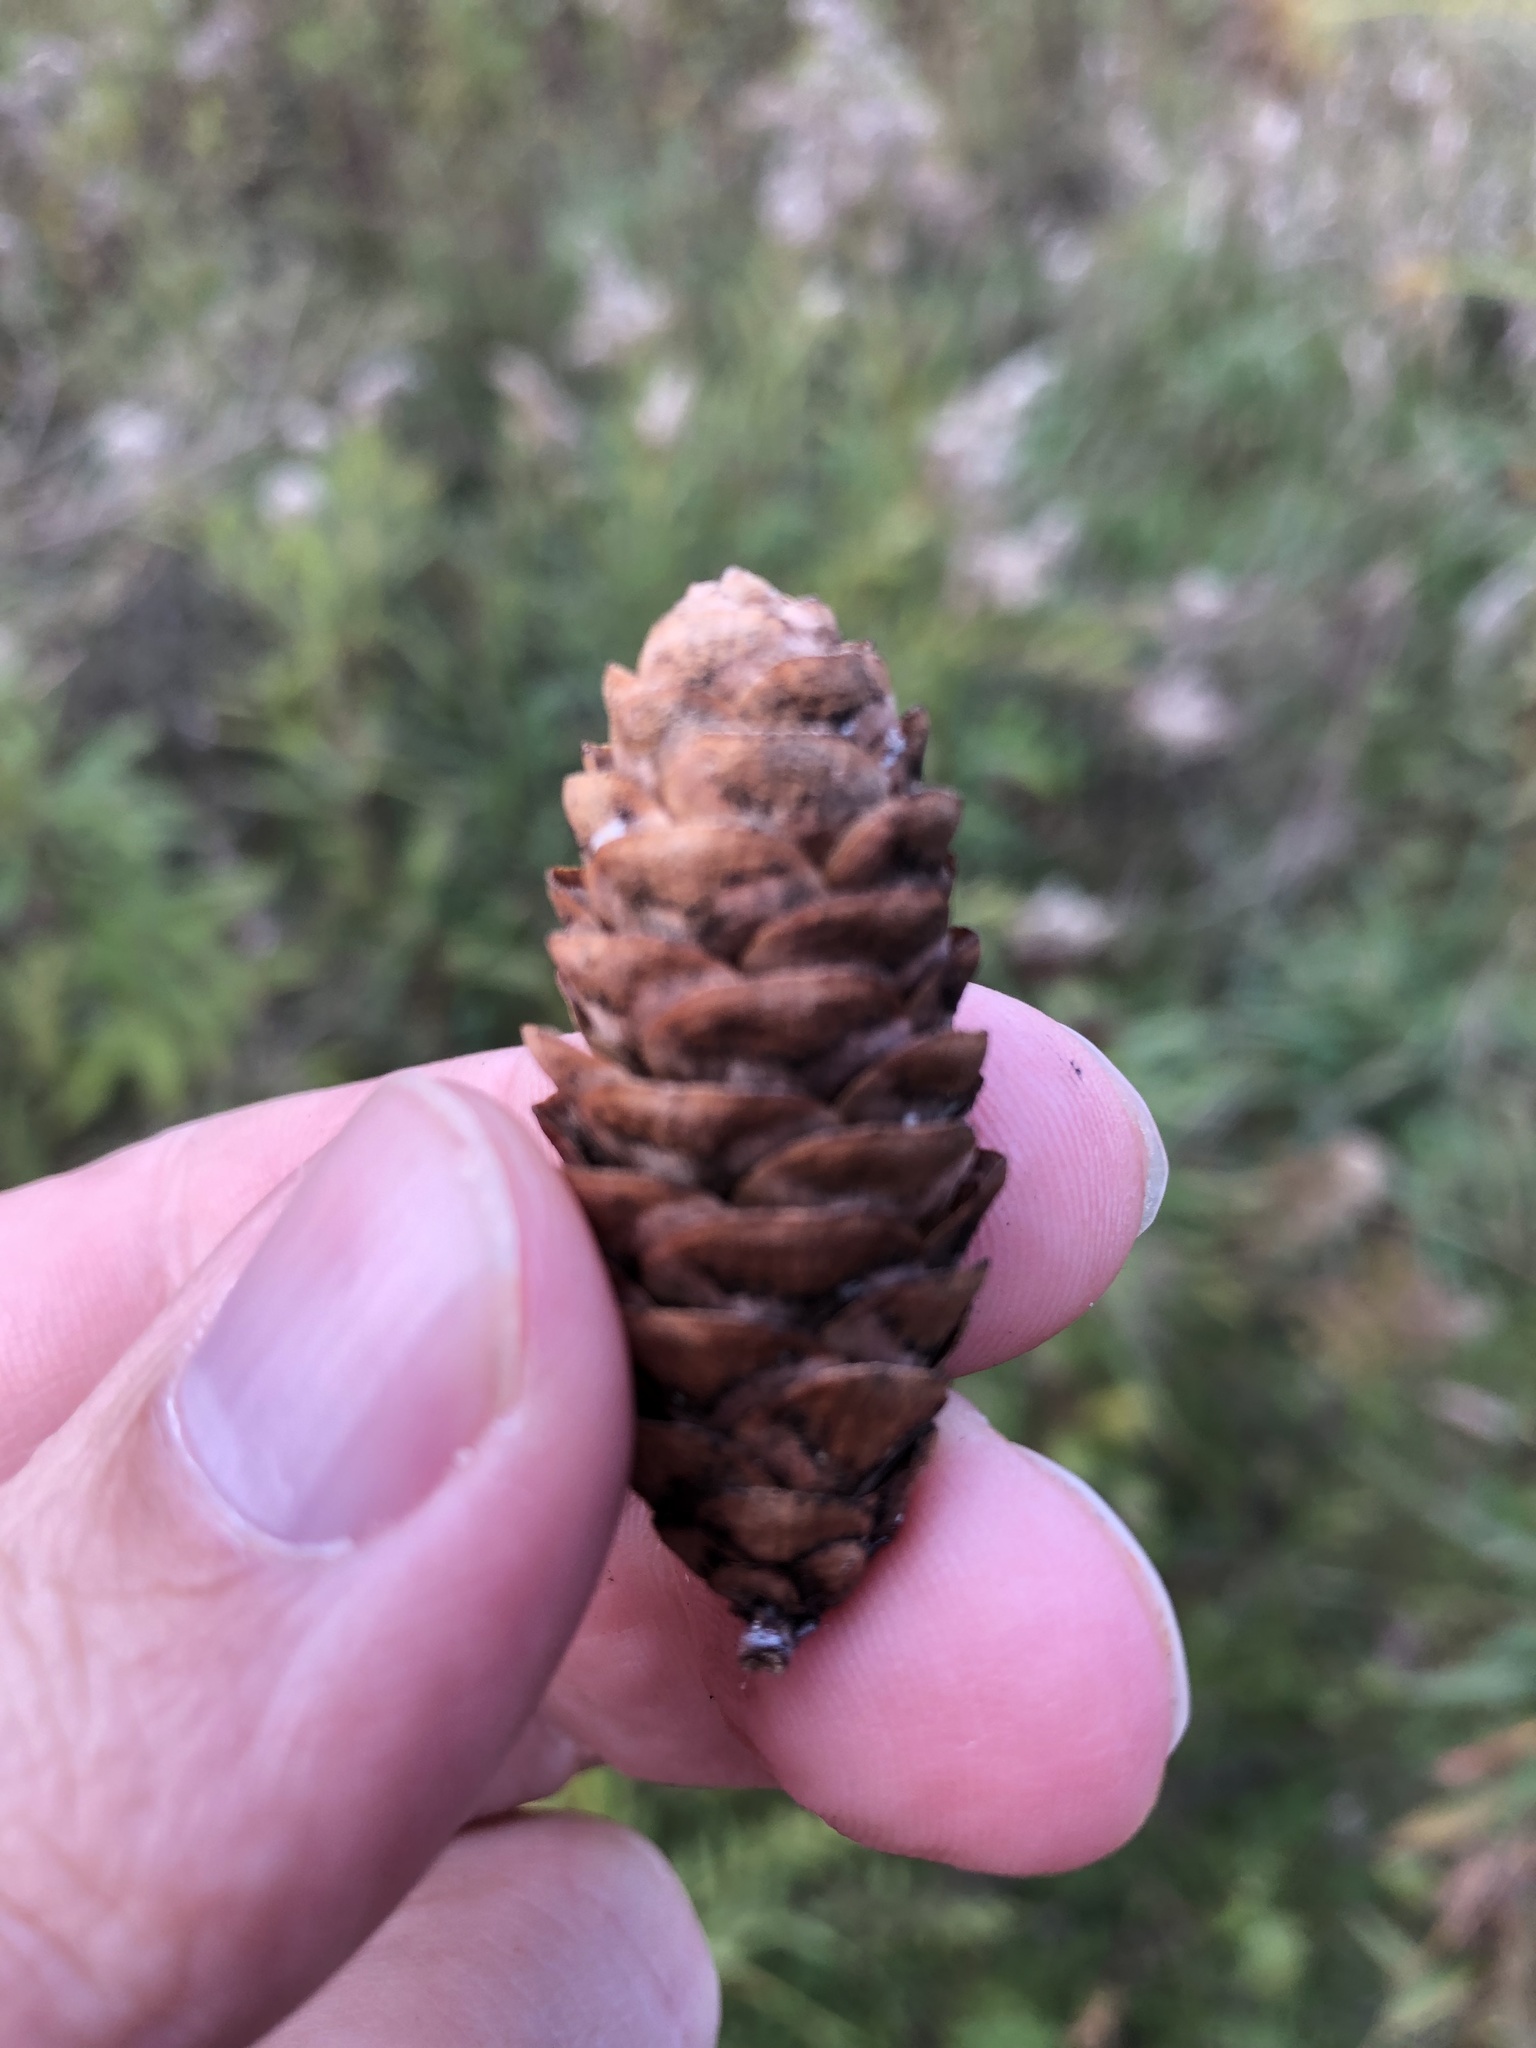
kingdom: Plantae
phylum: Tracheophyta
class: Pinopsida
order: Pinales
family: Pinaceae
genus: Picea
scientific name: Picea glauca
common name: White spruce
